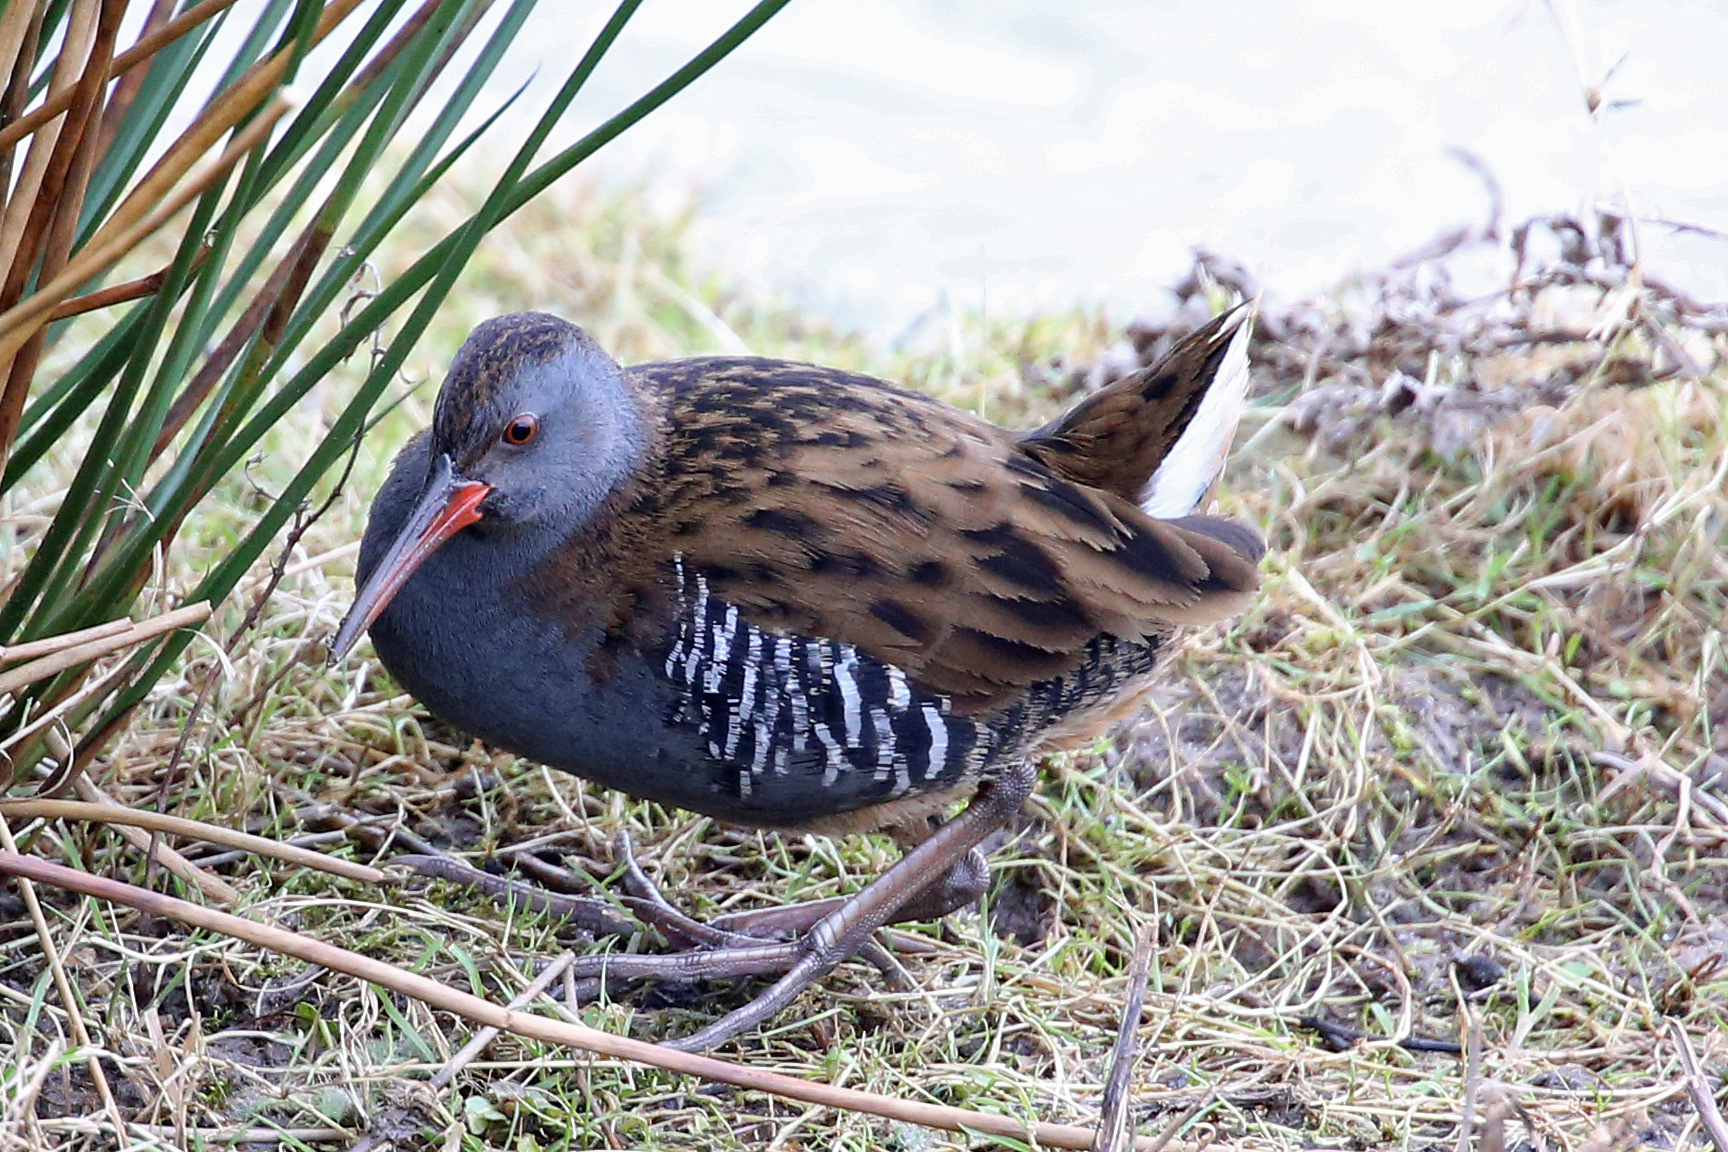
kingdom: Animalia
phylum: Chordata
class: Aves
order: Gruiformes
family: Rallidae
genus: Rallus
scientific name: Rallus aquaticus
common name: Water rail
